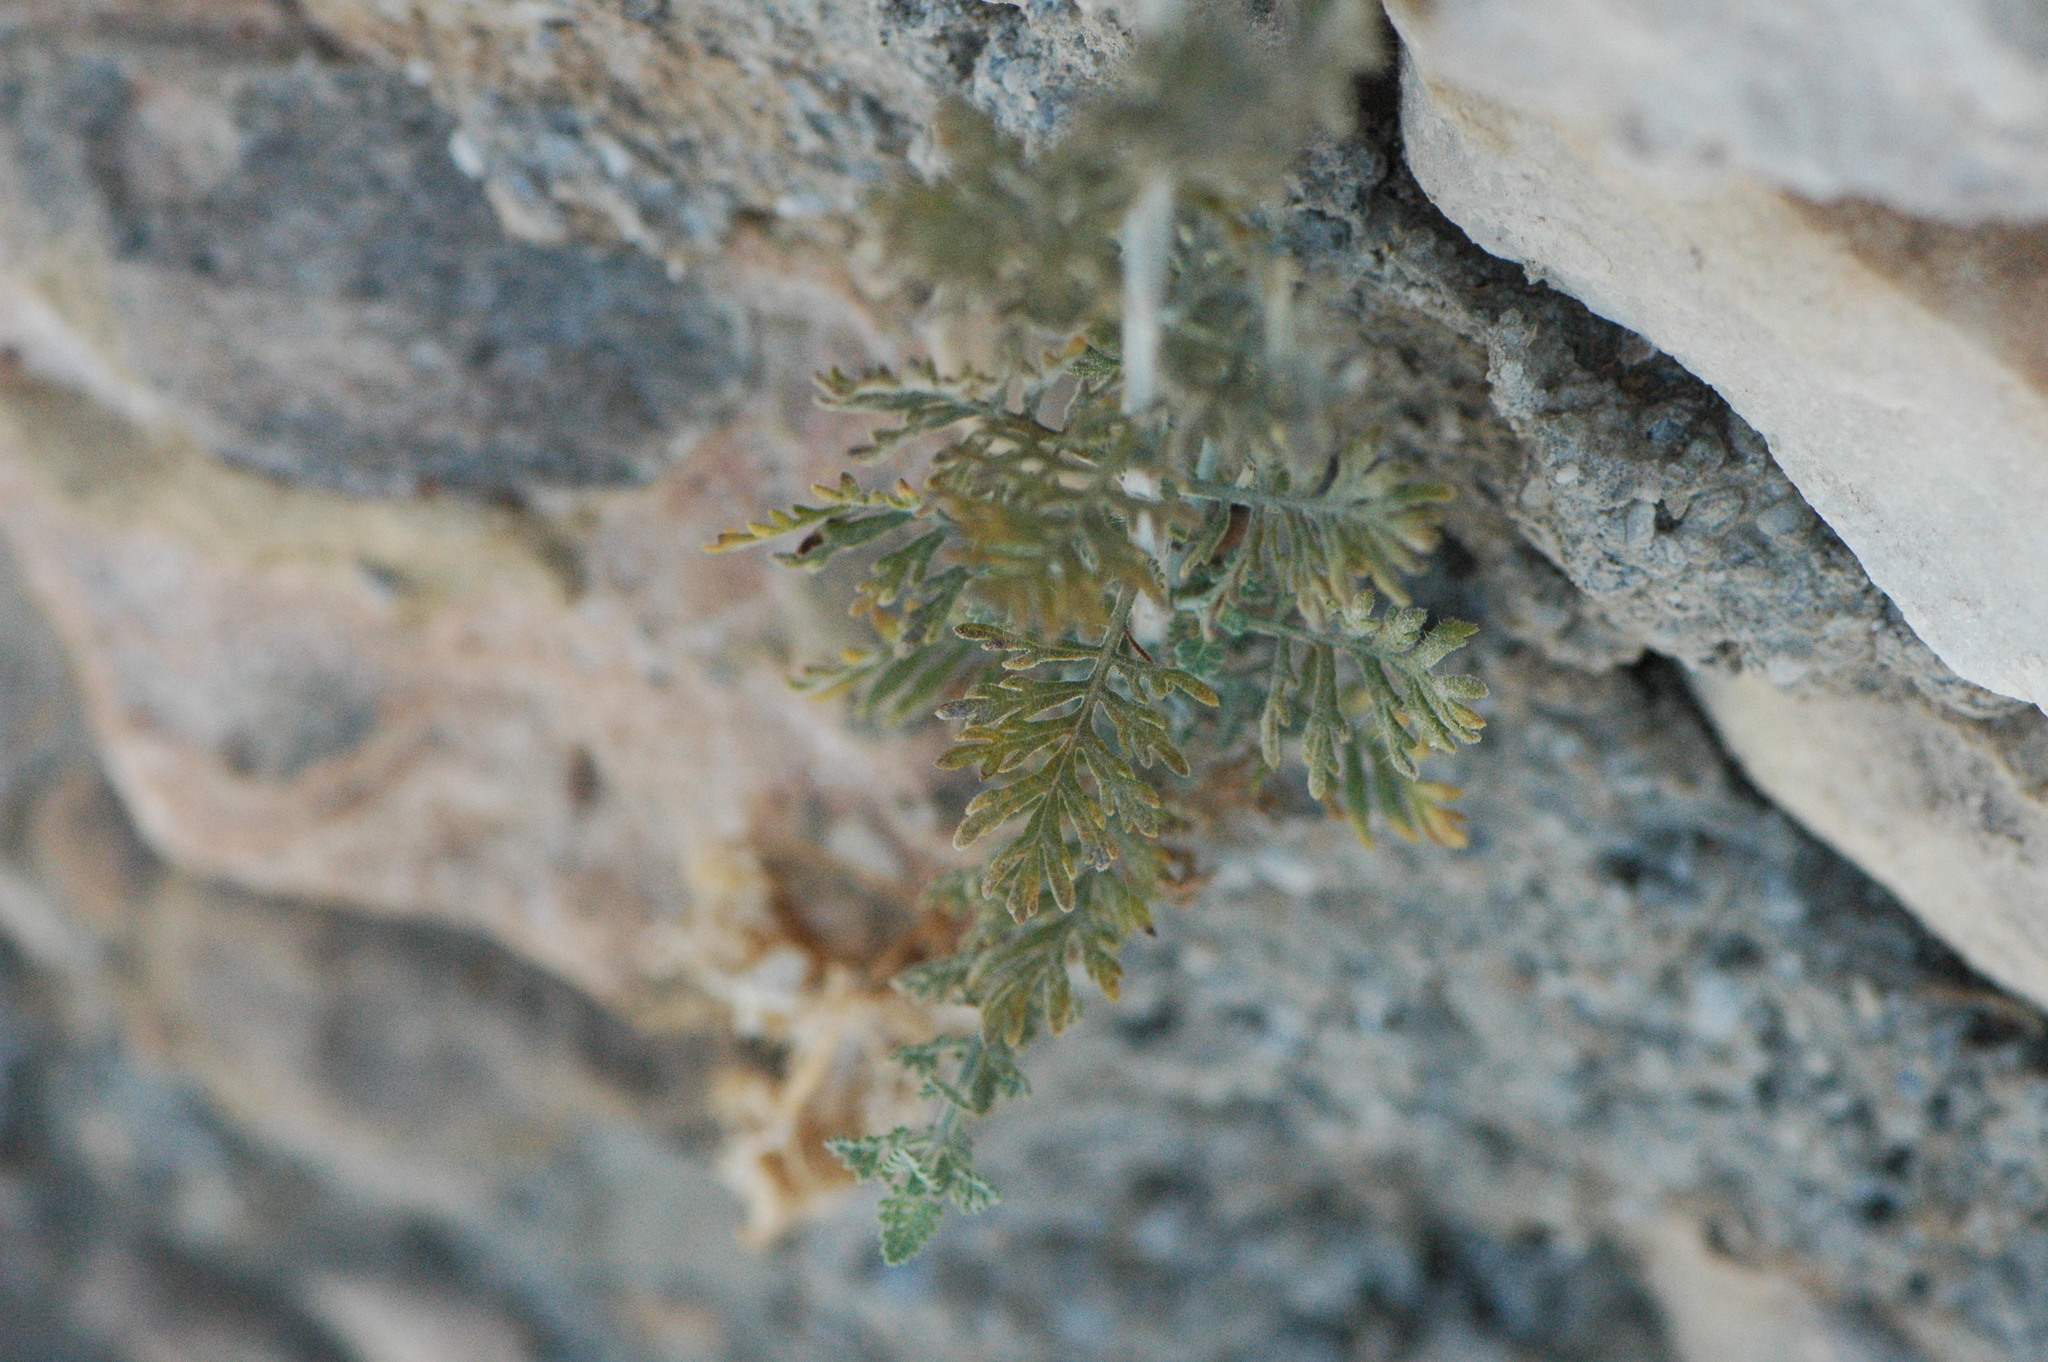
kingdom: Plantae
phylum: Tracheophyta
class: Magnoliopsida
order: Lamiales
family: Lamiaceae
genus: Lavandula
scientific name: Lavandula multifida
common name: Fern-leaf lavender
